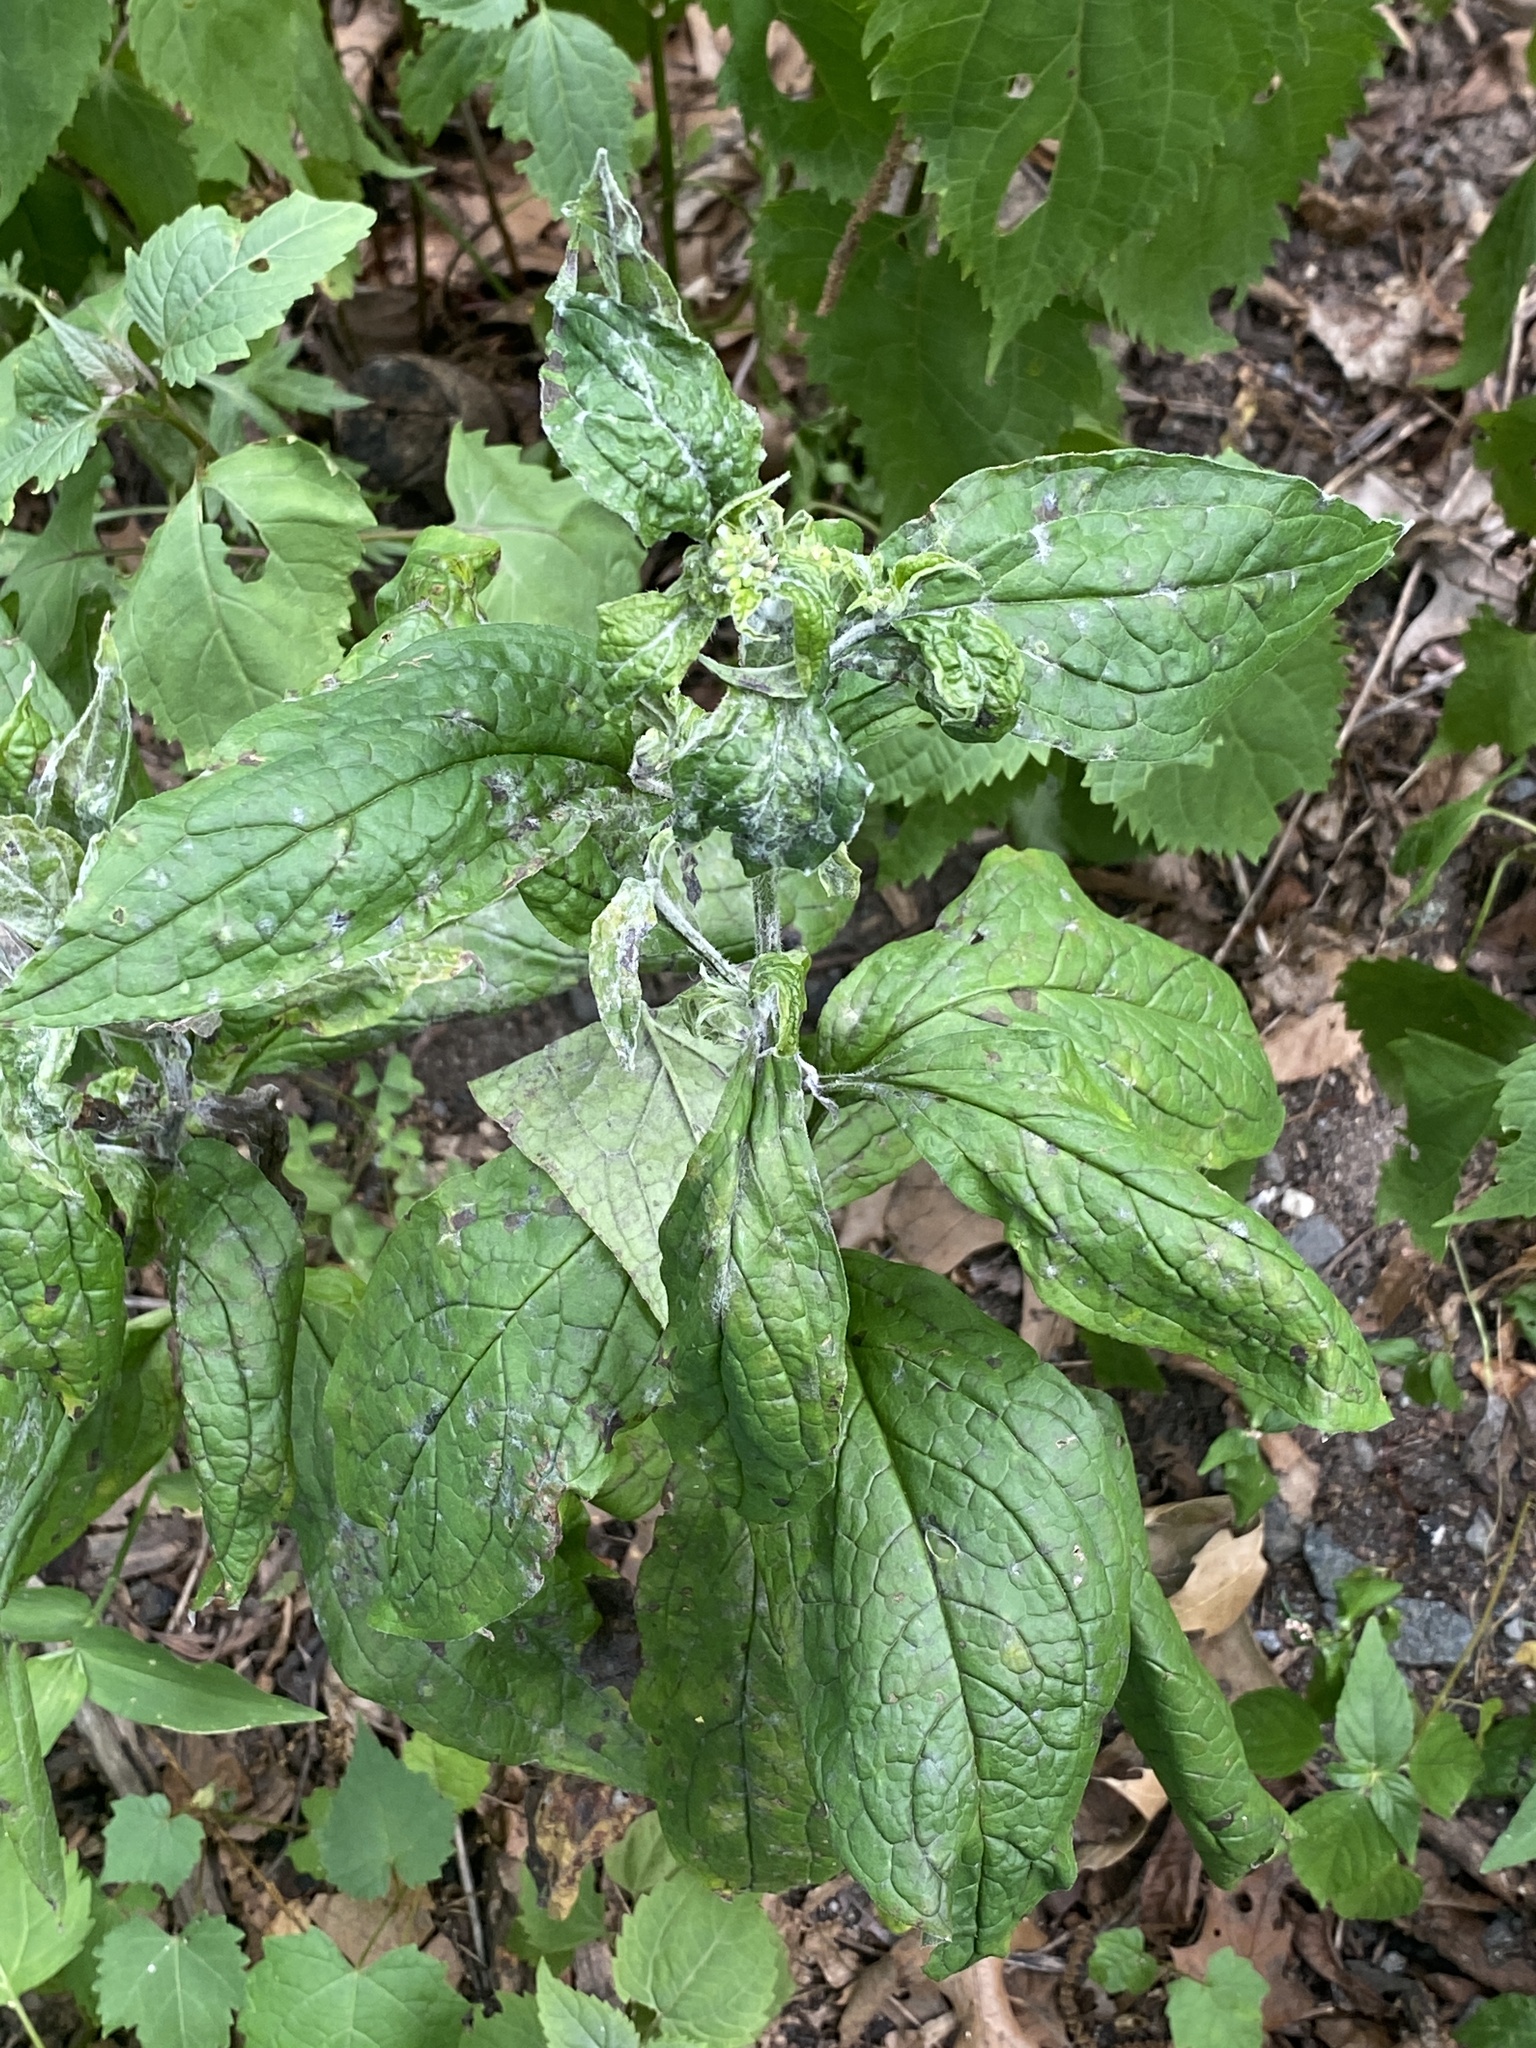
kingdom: Plantae
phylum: Tracheophyta
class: Magnoliopsida
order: Boraginales
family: Boraginaceae
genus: Hackelia
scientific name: Hackelia virginiana
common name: Beggar's-lice
